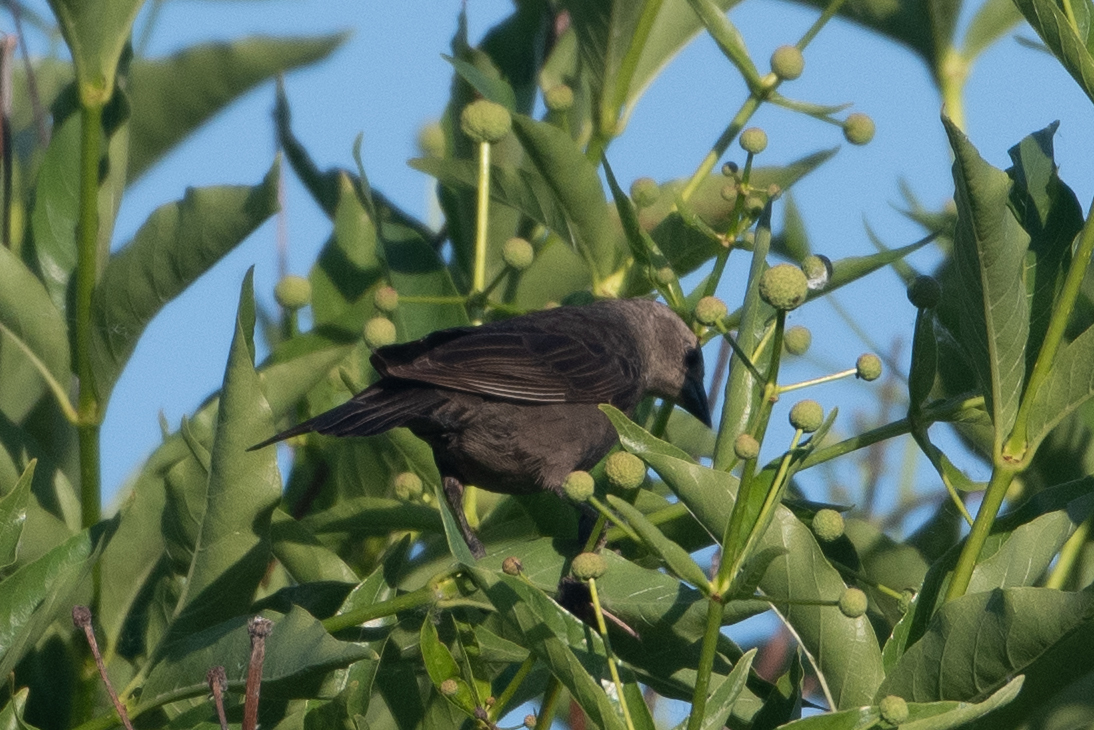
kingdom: Animalia
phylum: Chordata
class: Aves
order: Passeriformes
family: Icteridae
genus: Molothrus
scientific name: Molothrus ater
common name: Brown-headed cowbird
